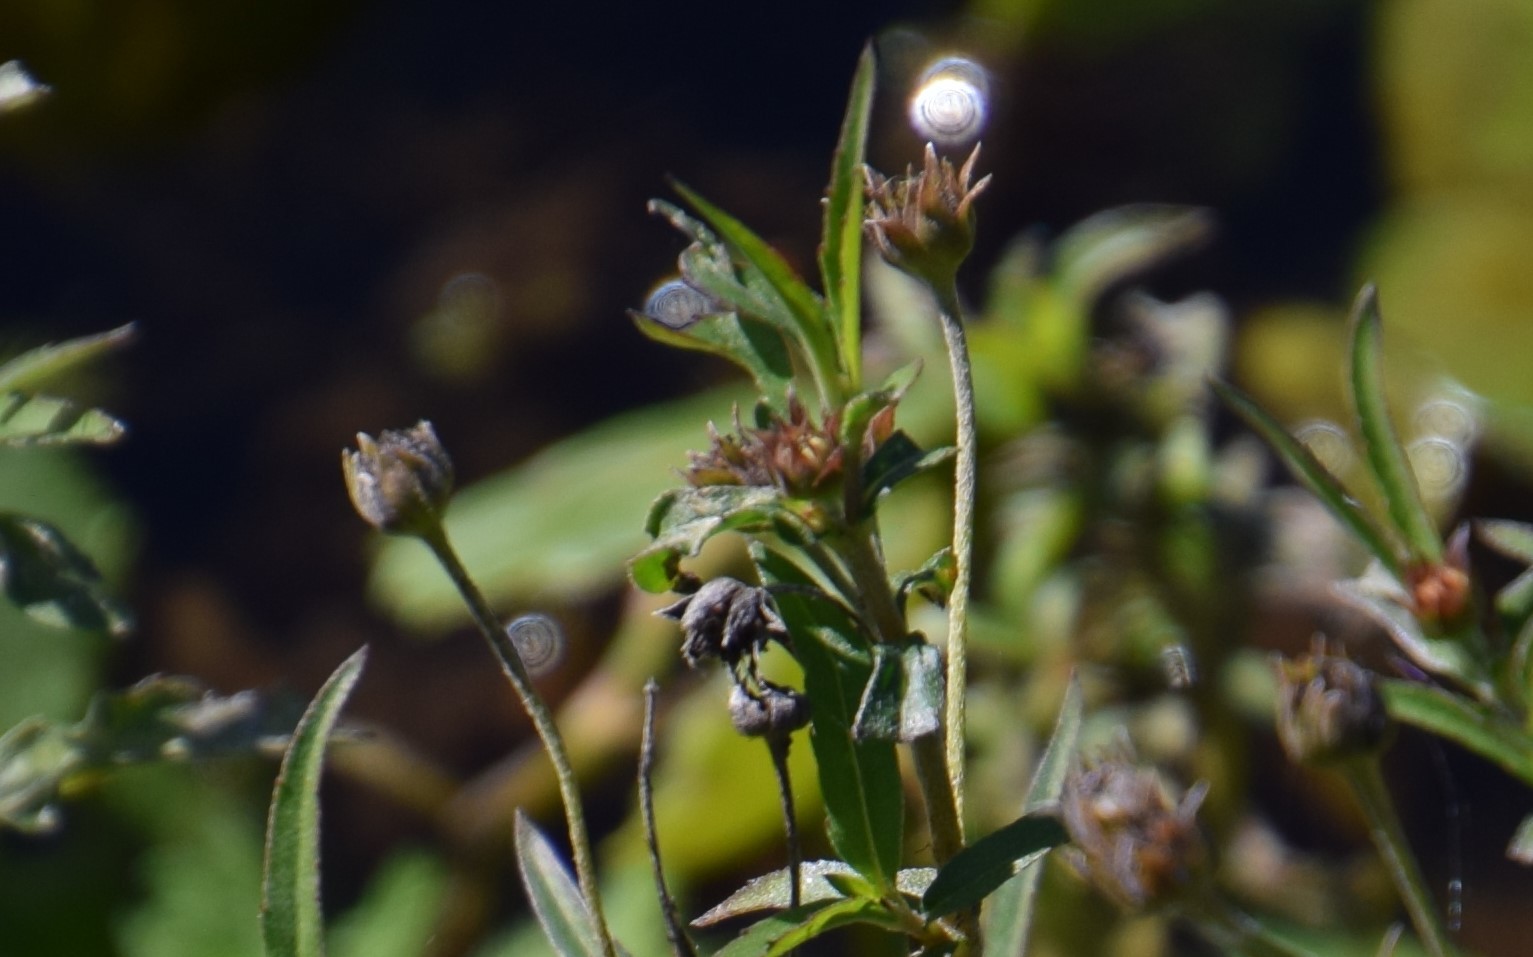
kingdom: Plantae
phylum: Tracheophyta
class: Magnoliopsida
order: Asterales
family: Asteraceae
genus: Eclipta
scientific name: Eclipta prostrata
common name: False daisy
